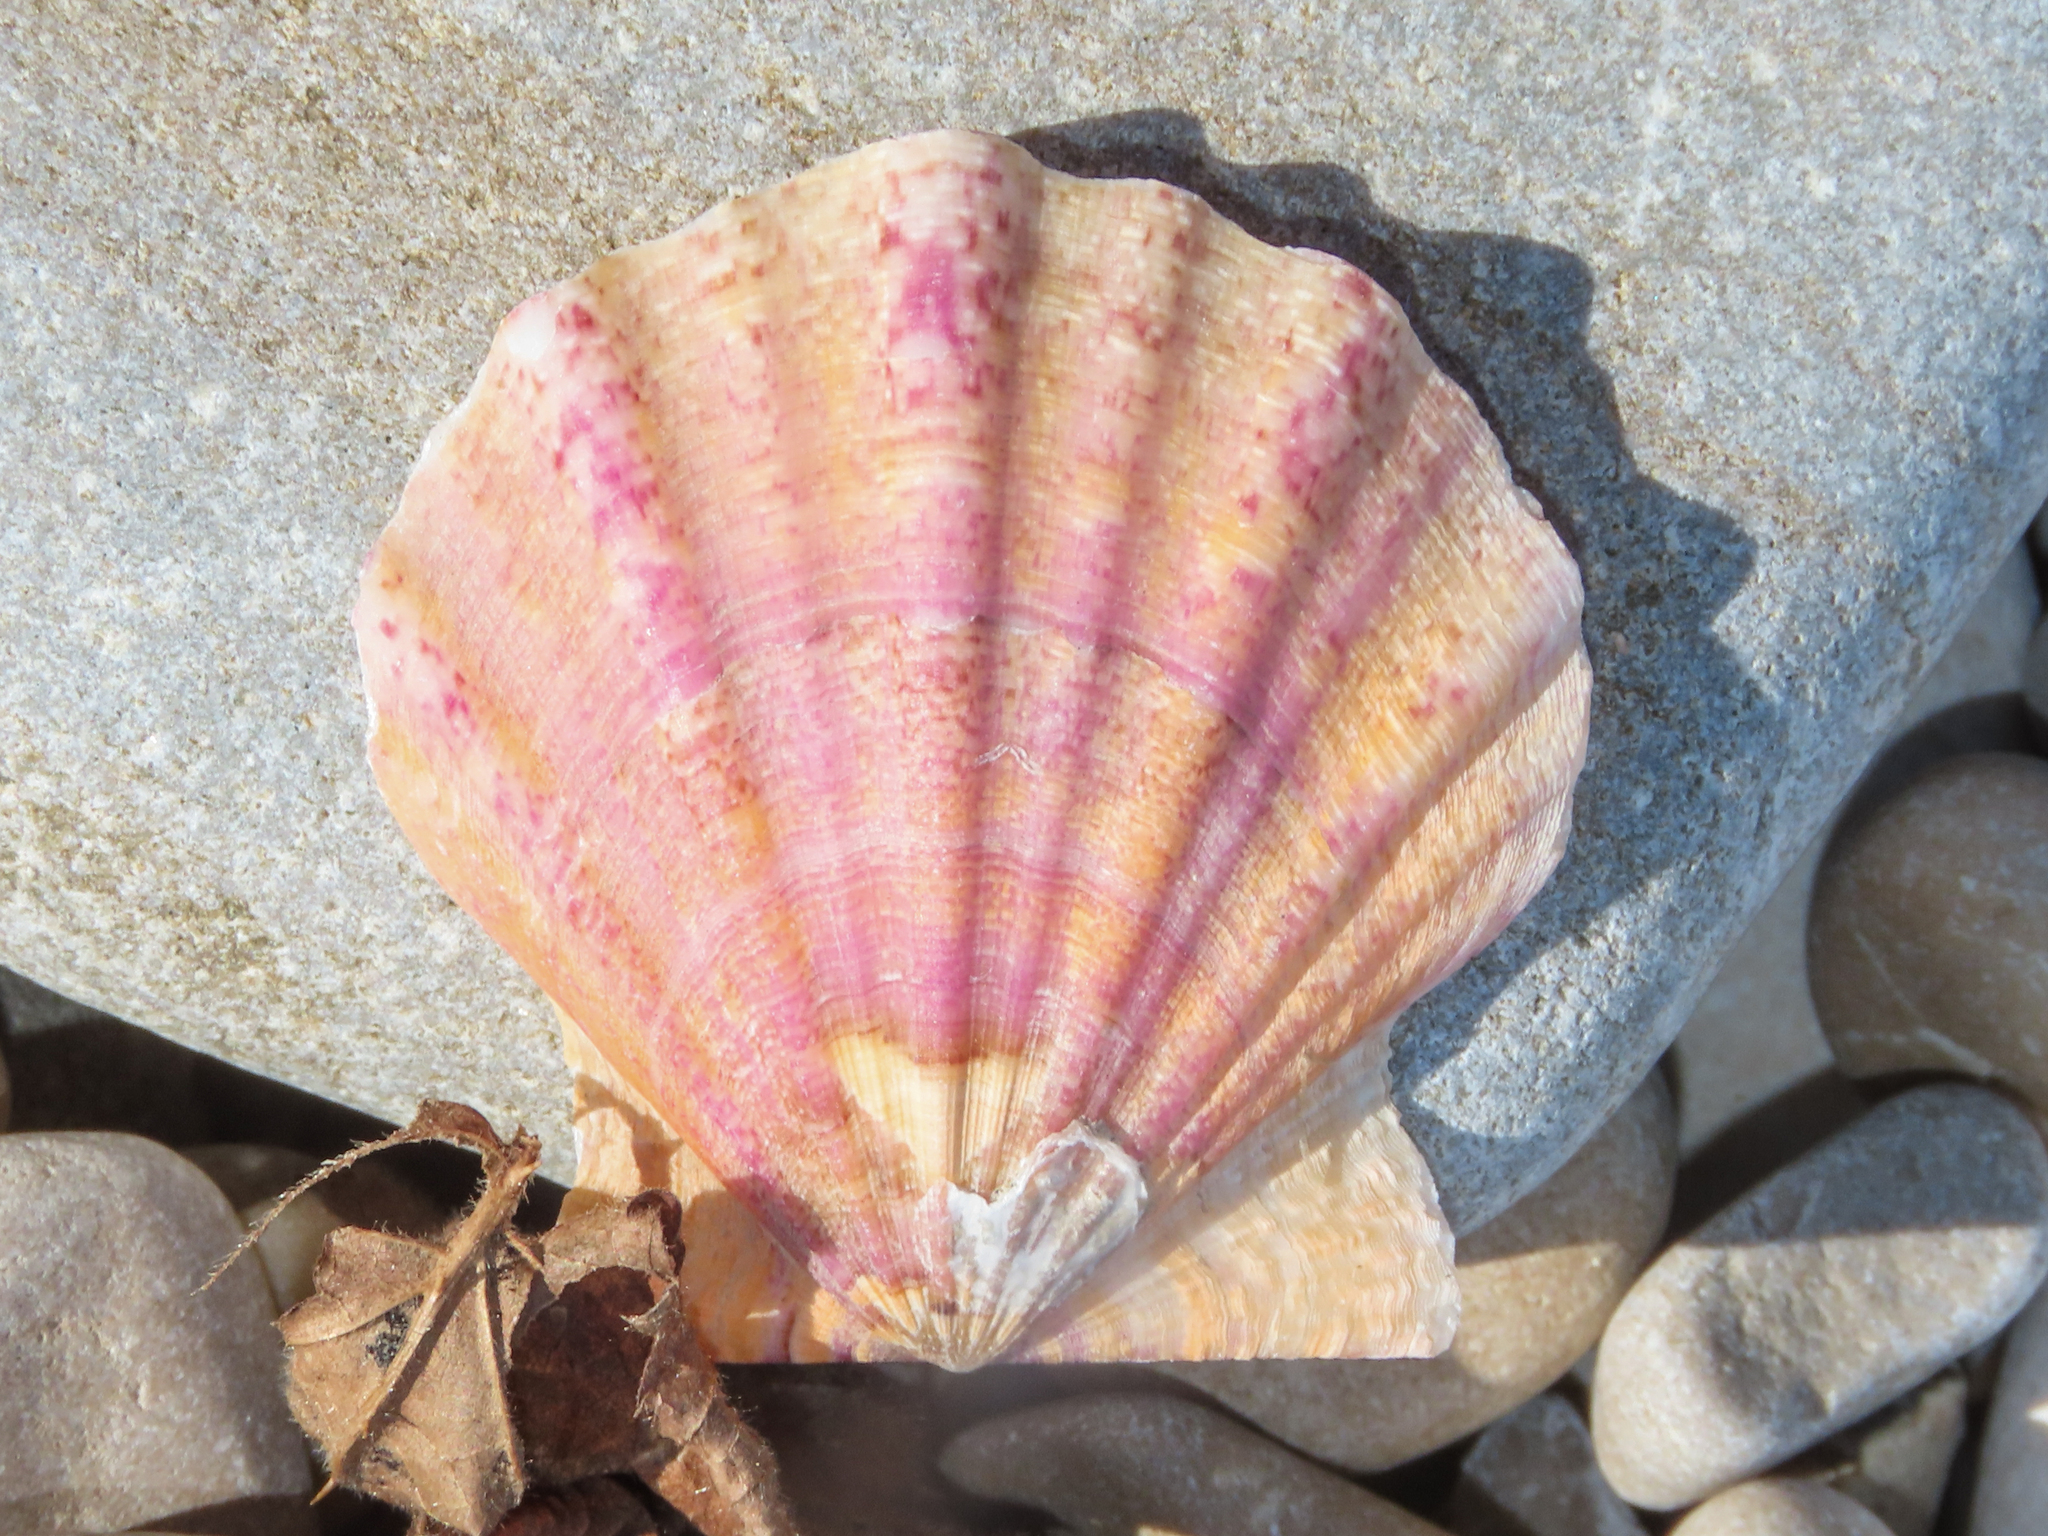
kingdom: Animalia
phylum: Mollusca
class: Bivalvia
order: Pectinida
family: Pectinidae
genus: Flexopecten
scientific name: Flexopecten glaber
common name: Smooth scallop
